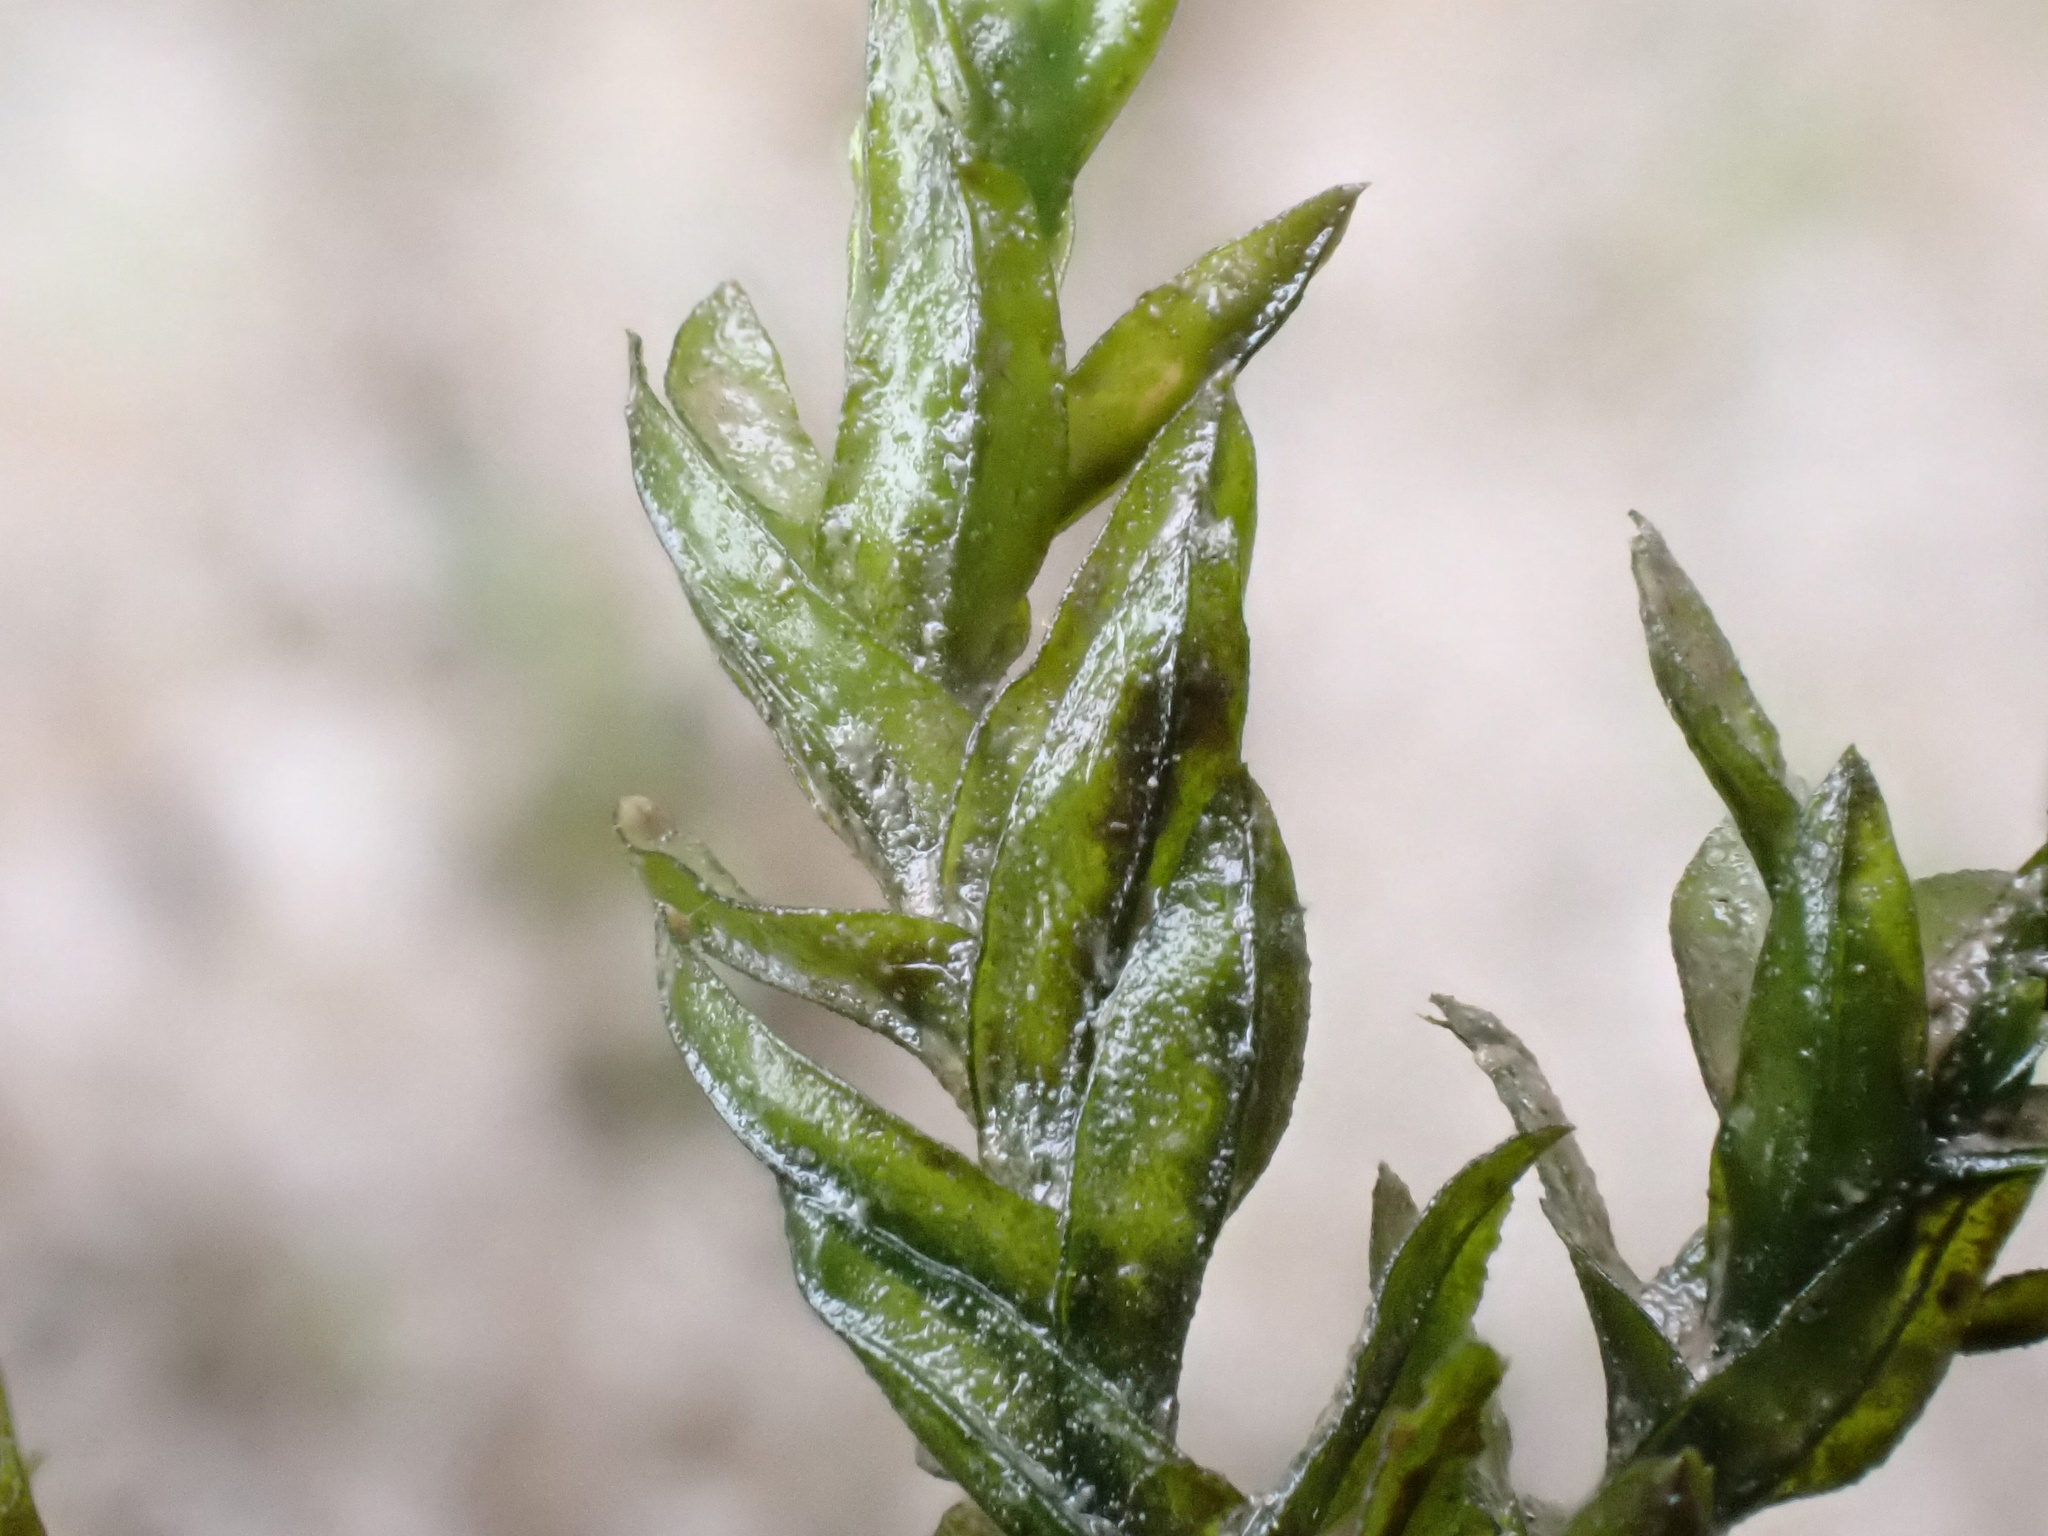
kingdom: Plantae
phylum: Bryophyta
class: Bryopsida
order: Pottiales
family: Pottiaceae
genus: Cinclidotus
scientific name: Cinclidotus fontinaloides
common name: Smaller lattice-moss
